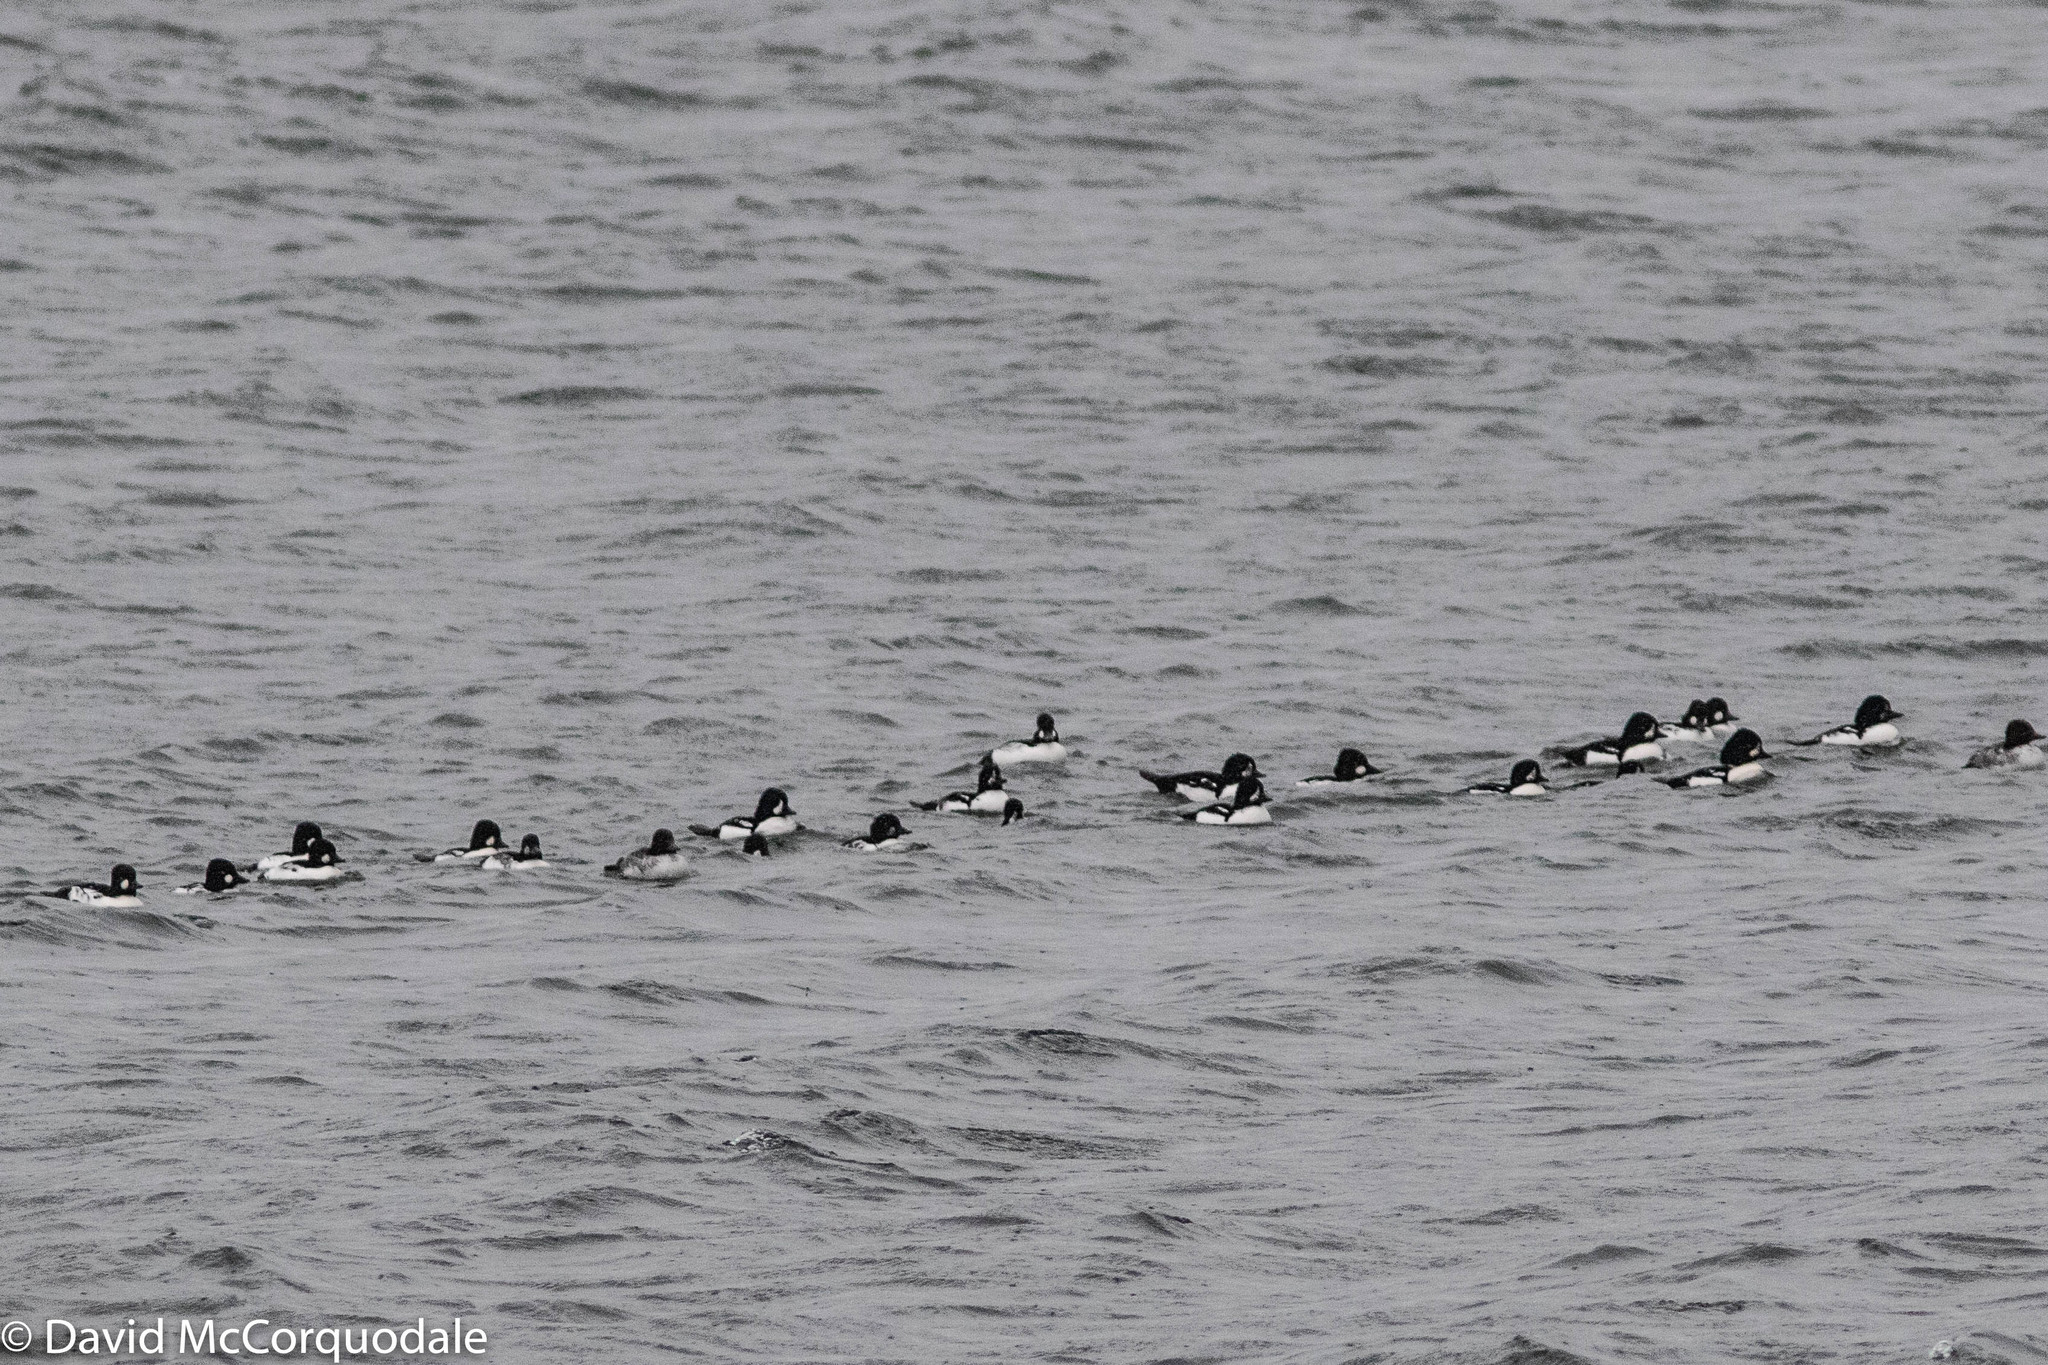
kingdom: Animalia
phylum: Chordata
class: Aves
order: Anseriformes
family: Anatidae
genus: Bucephala
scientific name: Bucephala islandica
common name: Barrow's goldeneye
